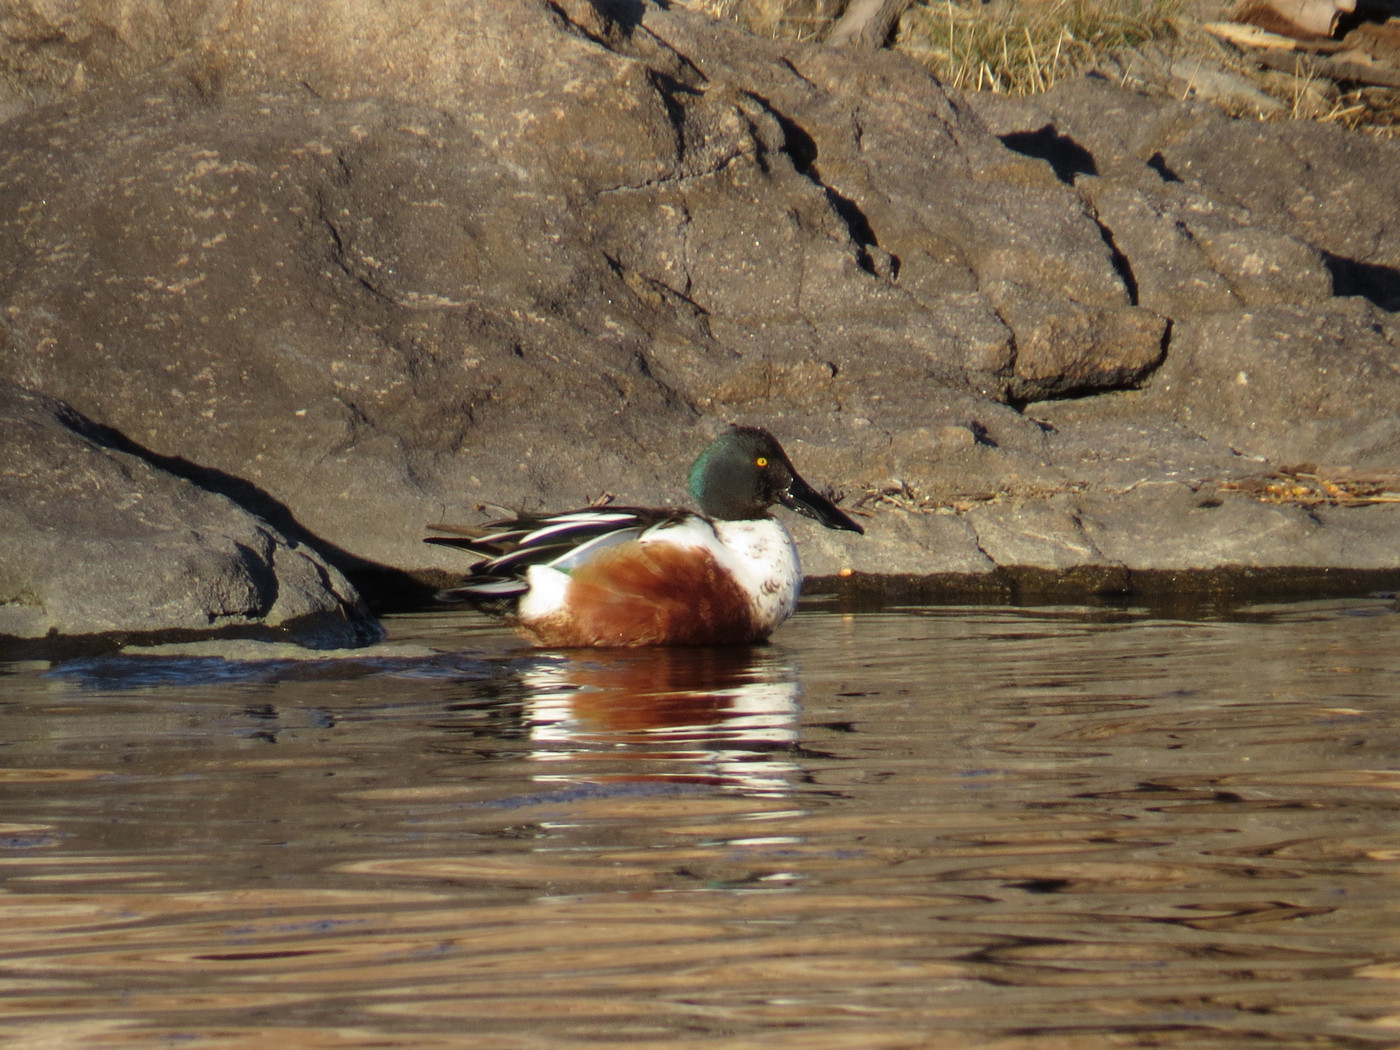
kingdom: Animalia
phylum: Chordata
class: Aves
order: Anseriformes
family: Anatidae
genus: Spatula
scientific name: Spatula clypeata
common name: Northern shoveler
